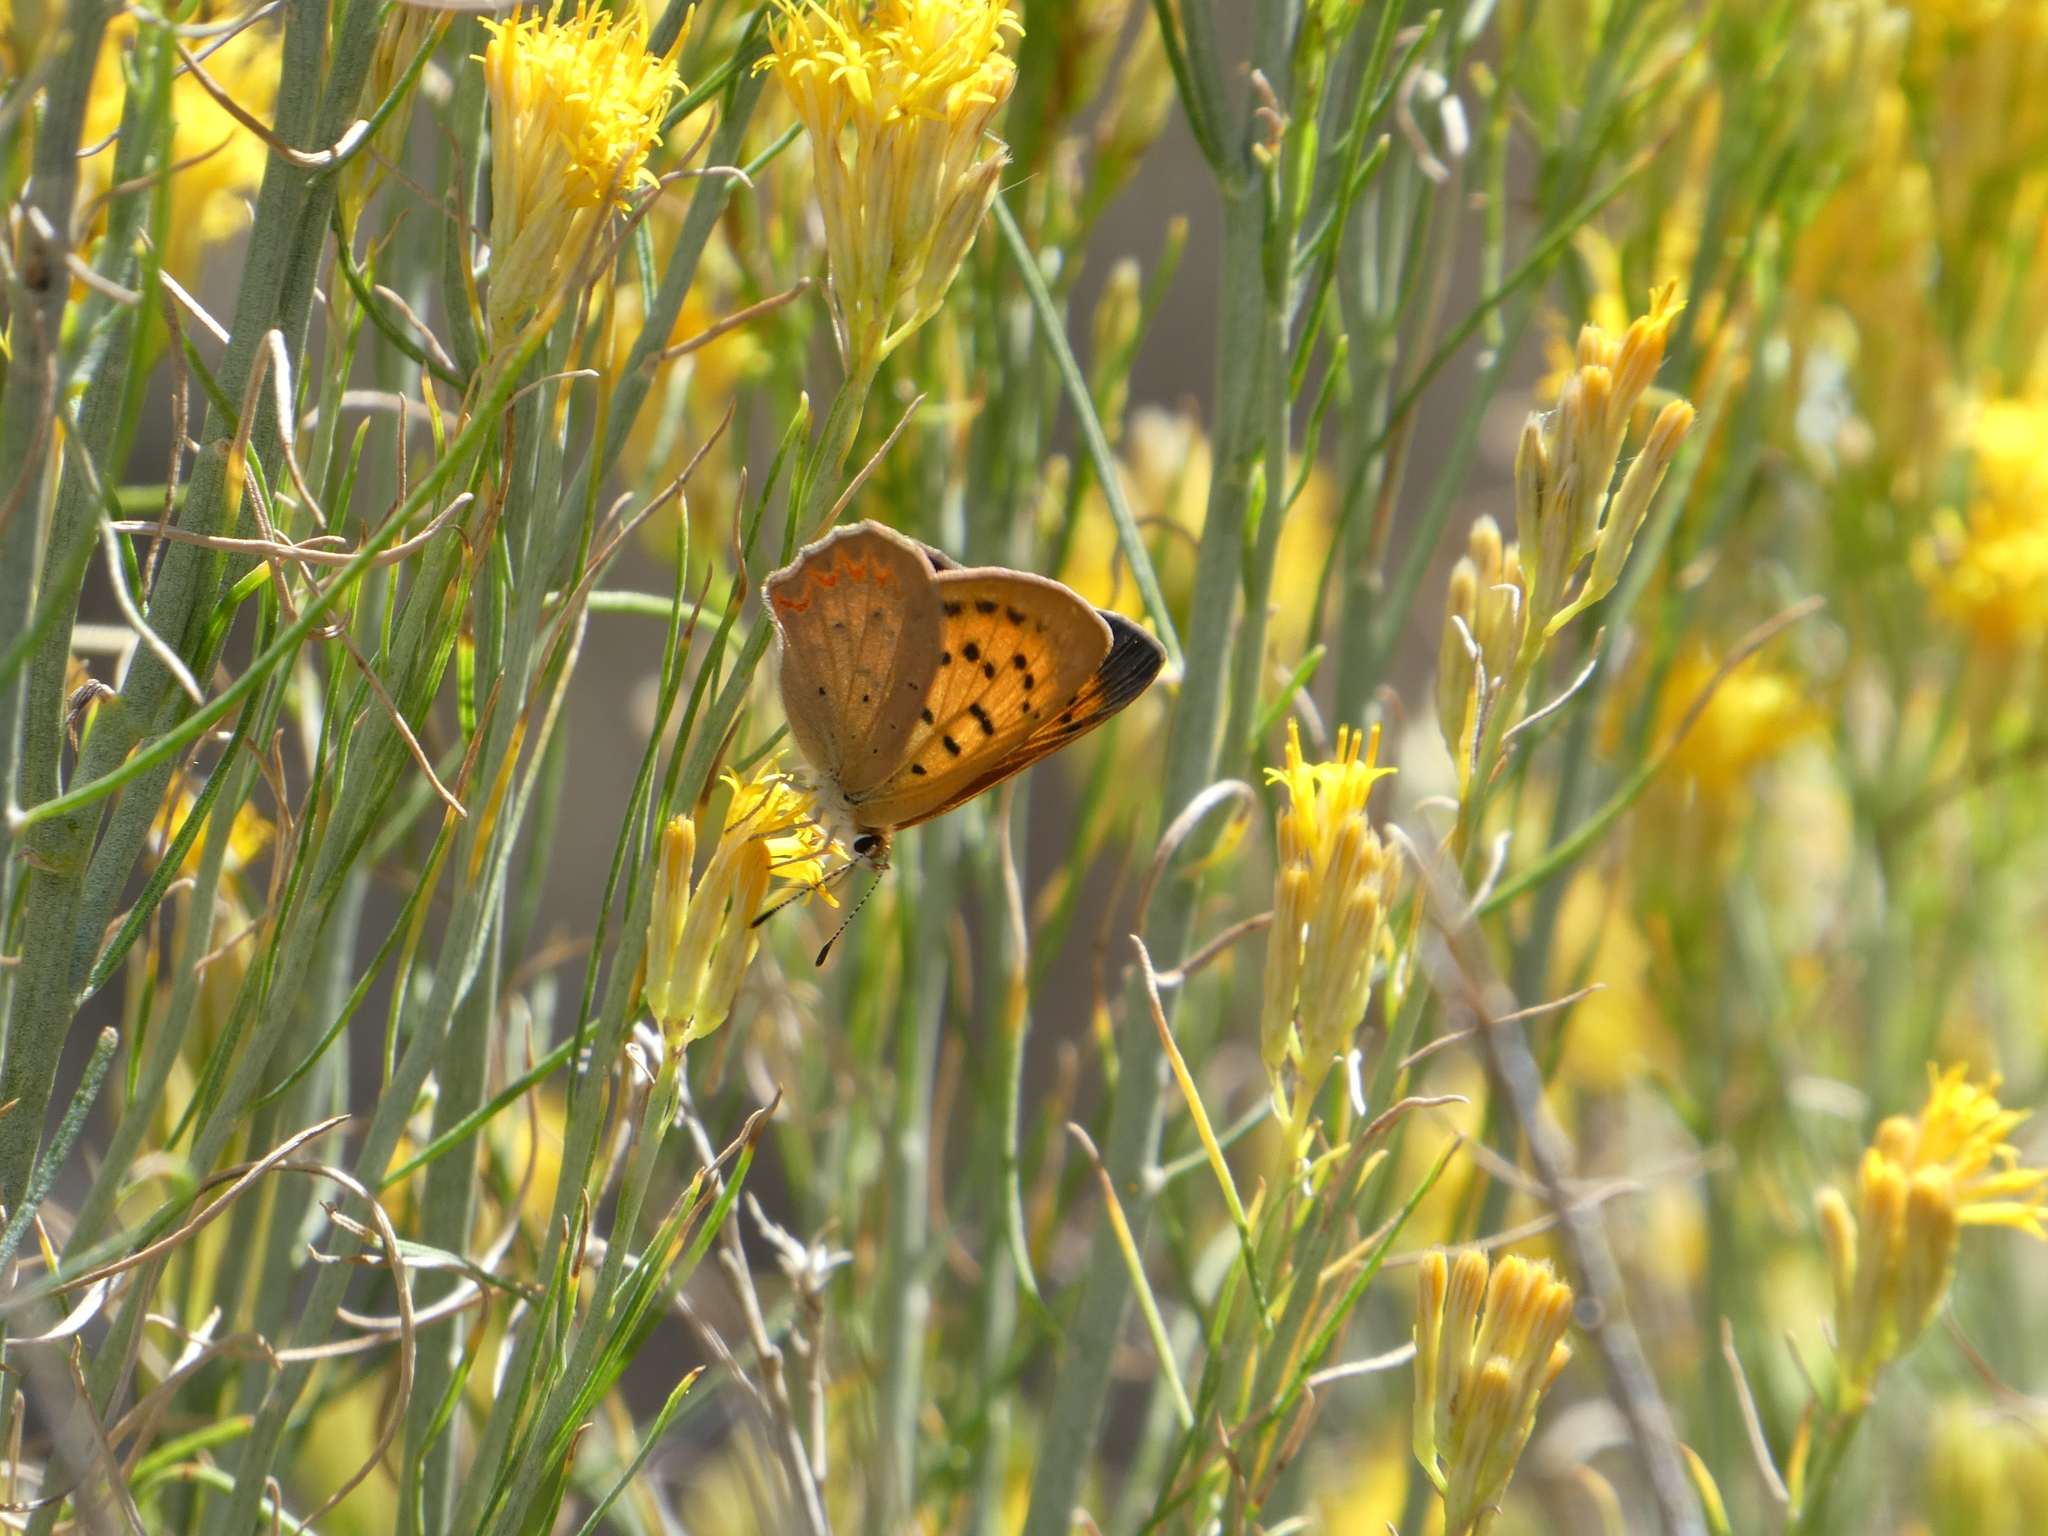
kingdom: Animalia
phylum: Arthropoda
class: Insecta
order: Lepidoptera
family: Lycaenidae
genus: Tharsalea
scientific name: Tharsalea helloides
